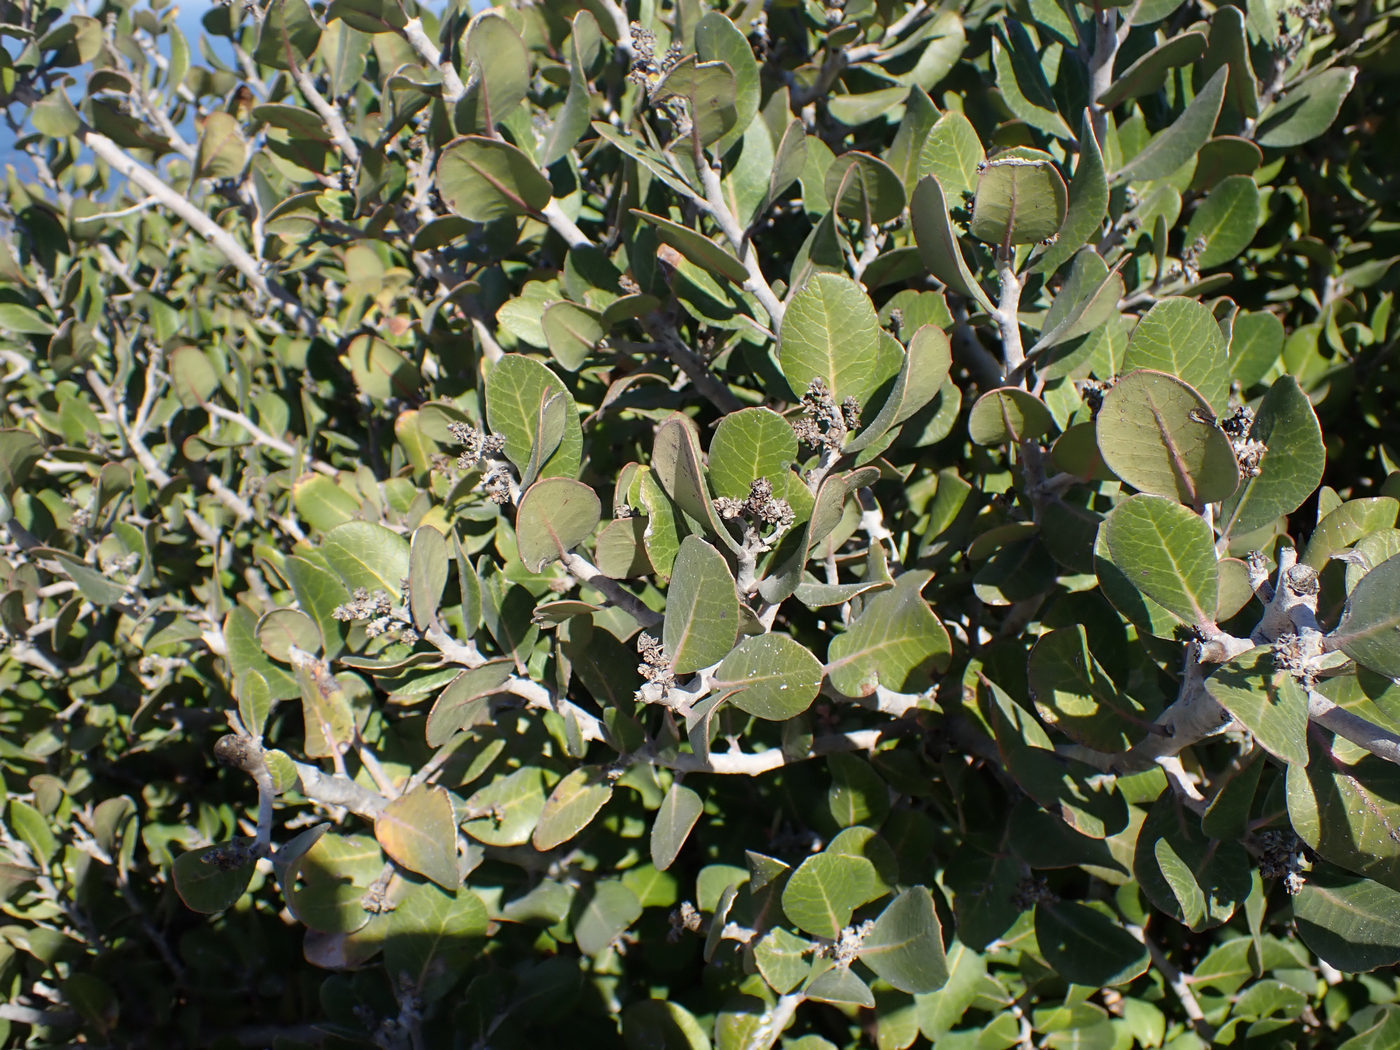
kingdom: Plantae
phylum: Tracheophyta
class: Magnoliopsida
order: Sapindales
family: Anacardiaceae
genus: Rhus
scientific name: Rhus integrifolia
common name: Lemonade sumac
